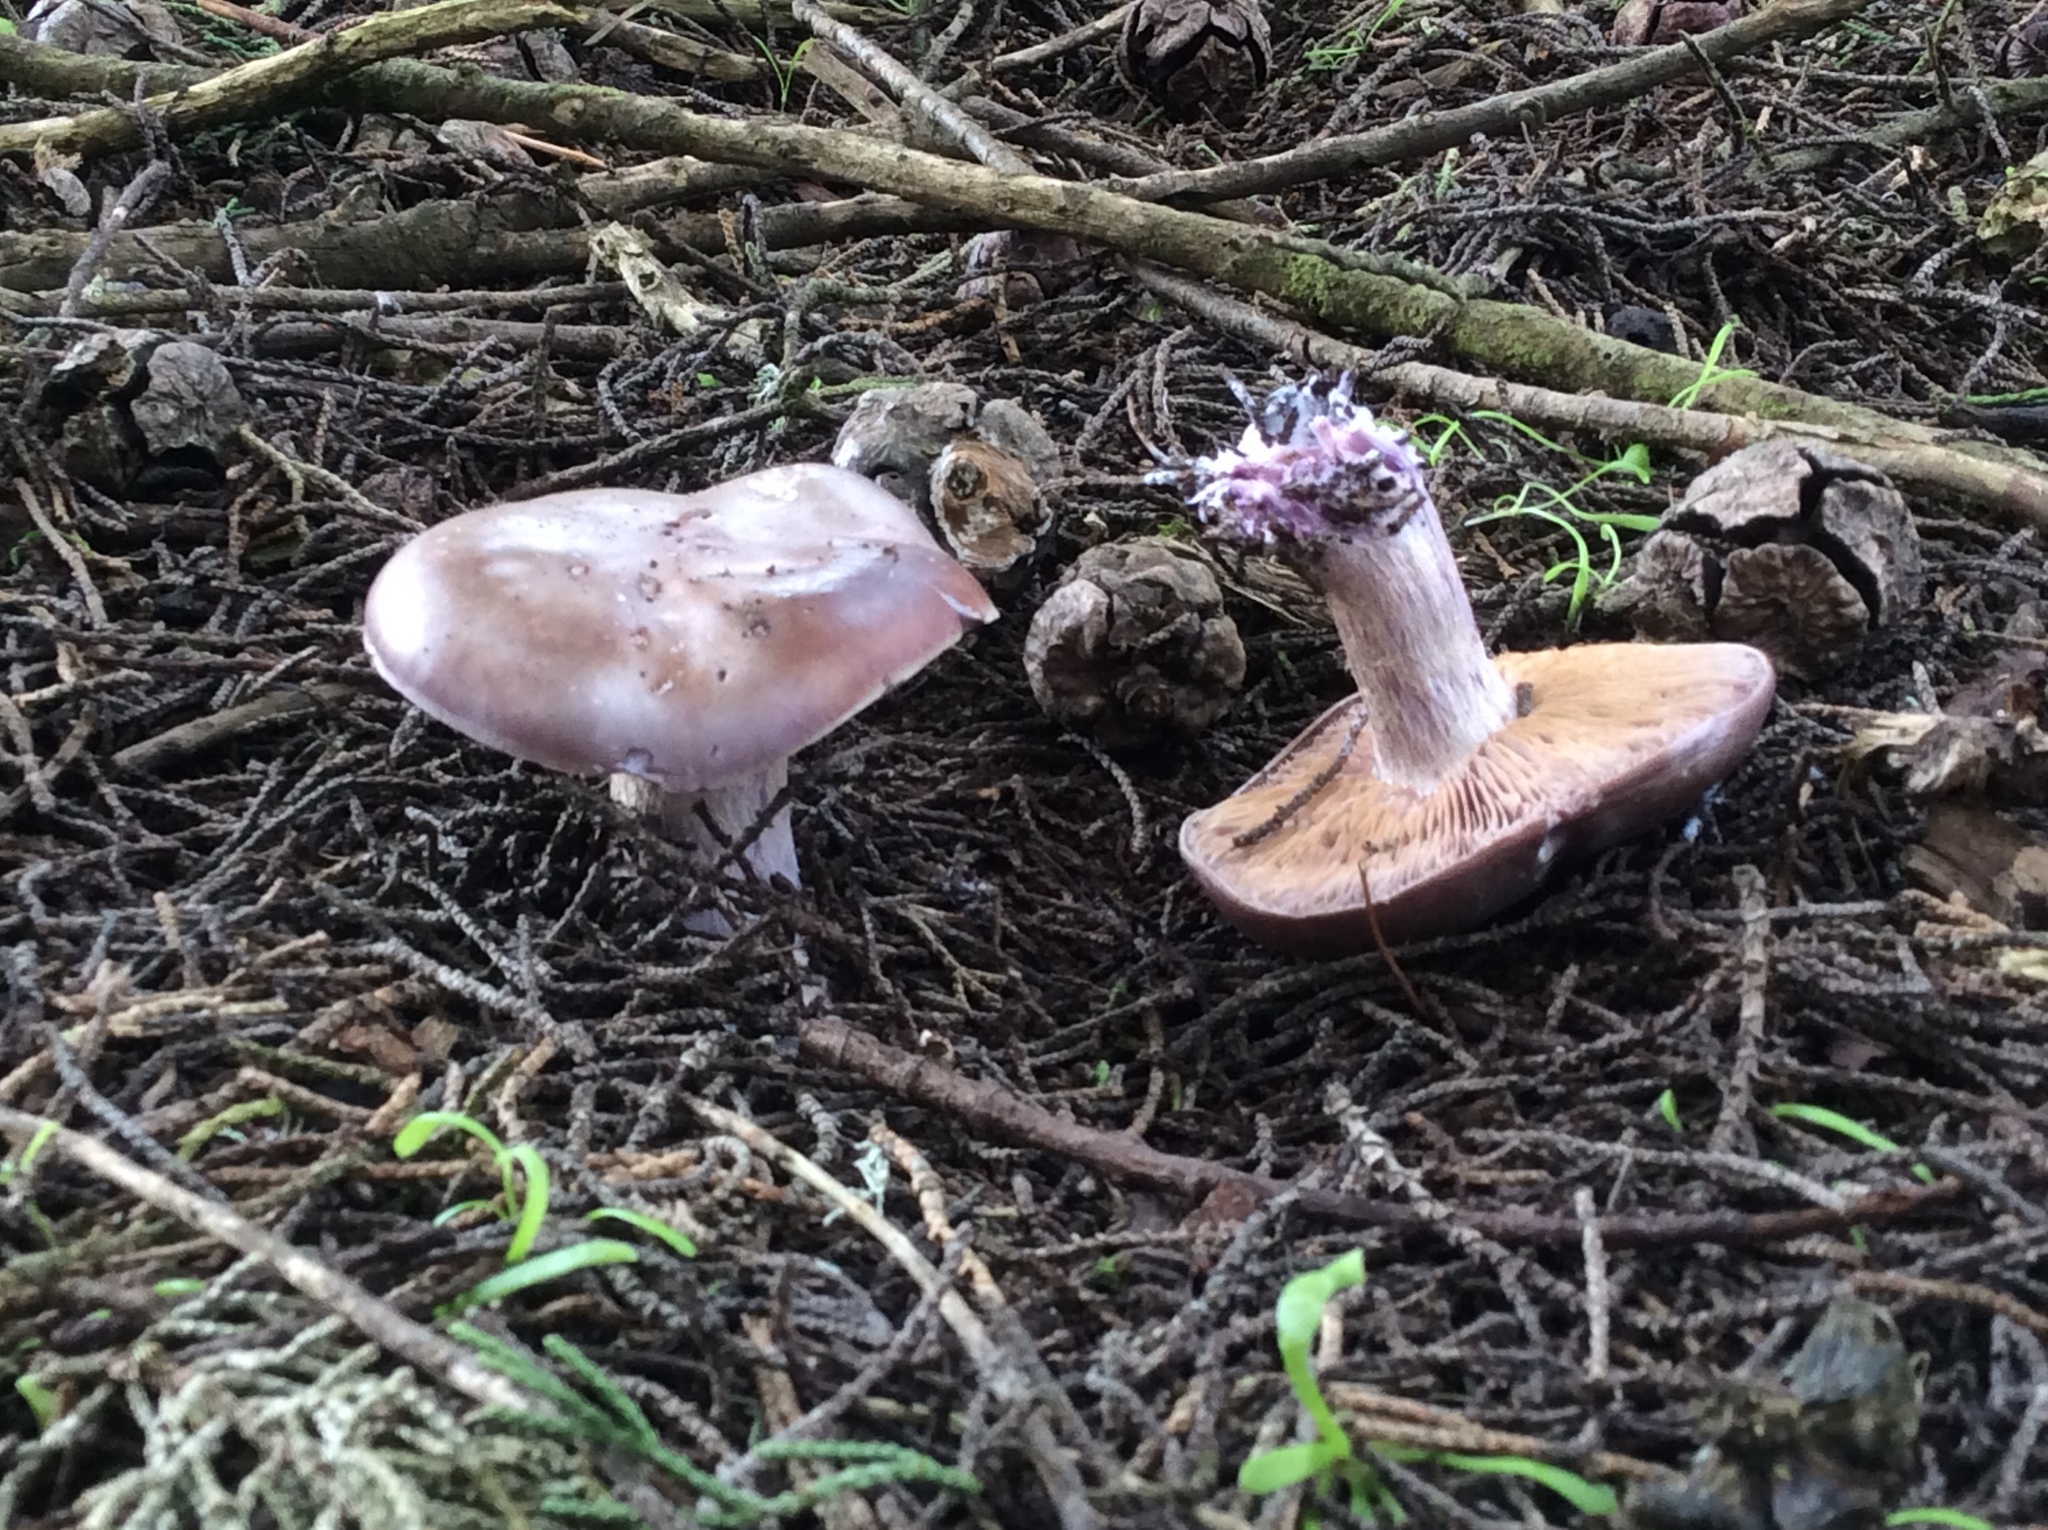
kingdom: Fungi
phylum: Basidiomycota
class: Agaricomycetes
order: Agaricales
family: Tricholomataceae
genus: Collybia
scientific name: Collybia
